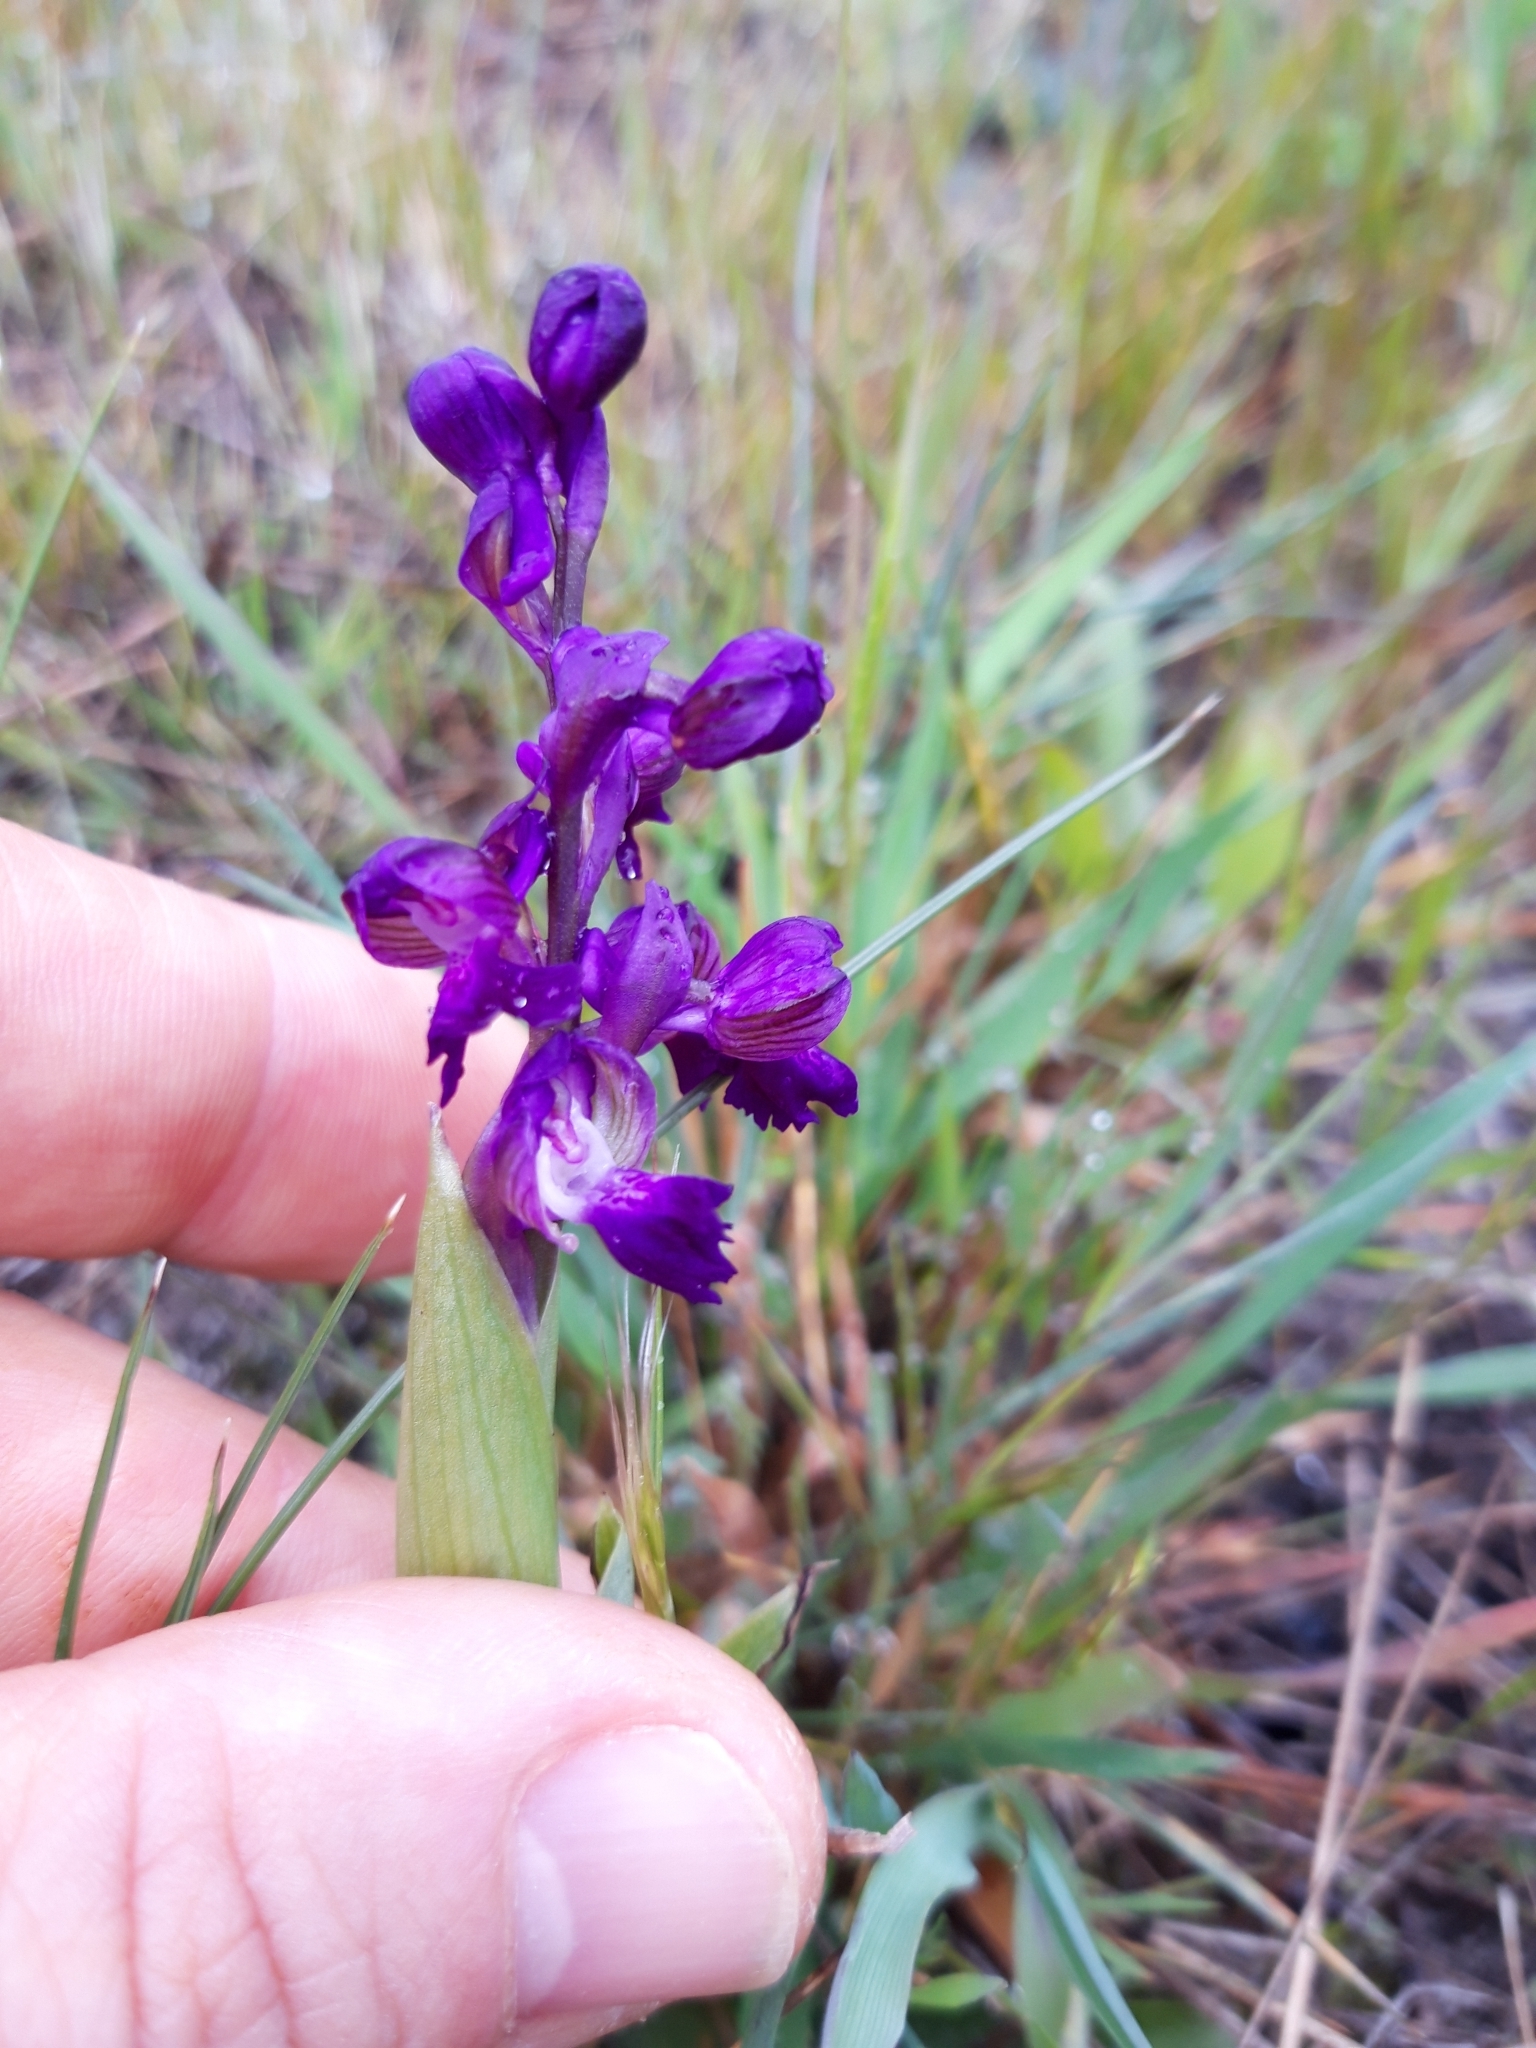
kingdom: Plantae
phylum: Tracheophyta
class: Liliopsida
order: Asparagales
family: Orchidaceae
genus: Anacamptis
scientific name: Anacamptis morio
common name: Green-winged orchid
